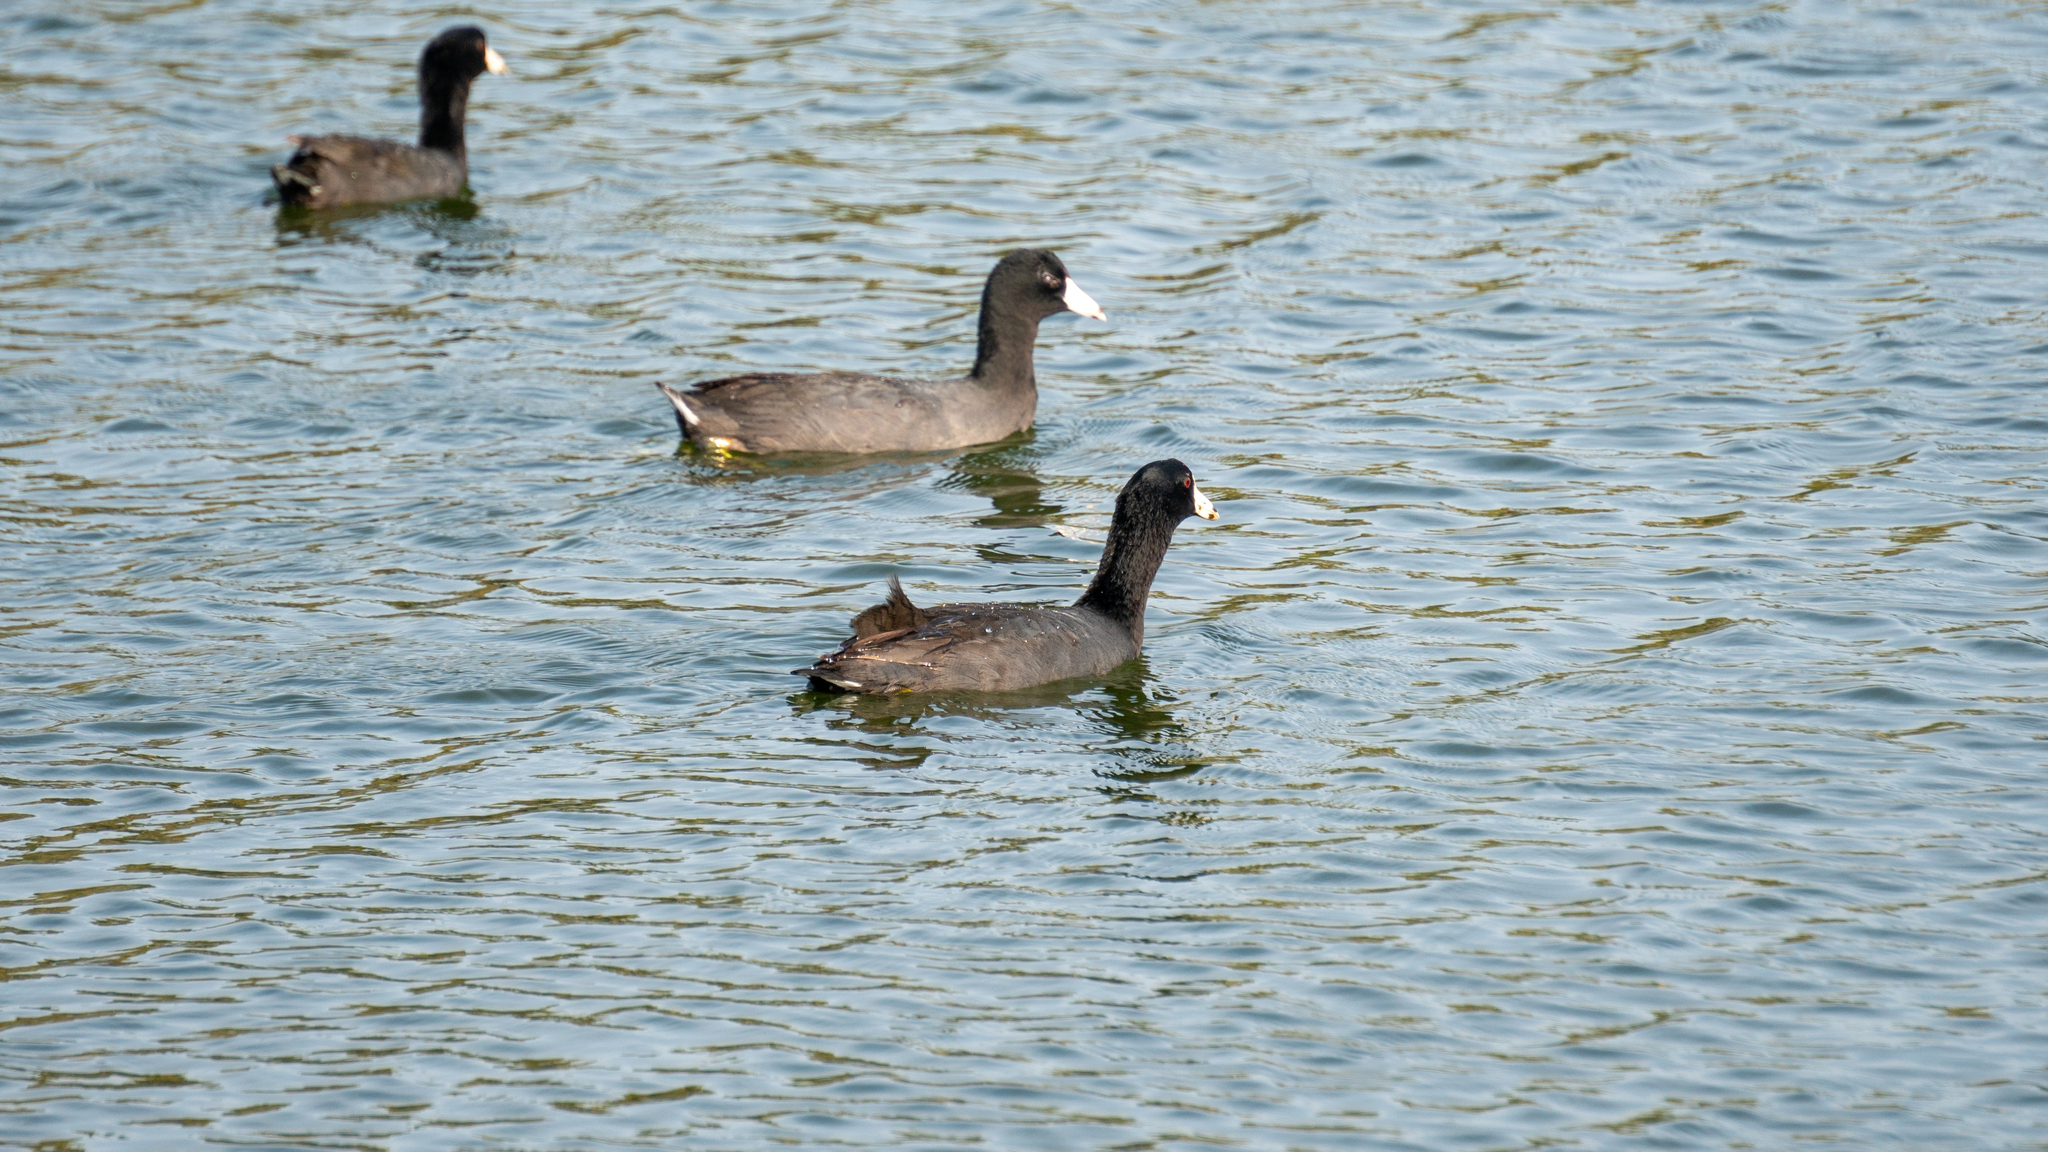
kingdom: Animalia
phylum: Chordata
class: Aves
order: Gruiformes
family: Rallidae
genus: Fulica
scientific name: Fulica americana
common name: American coot
